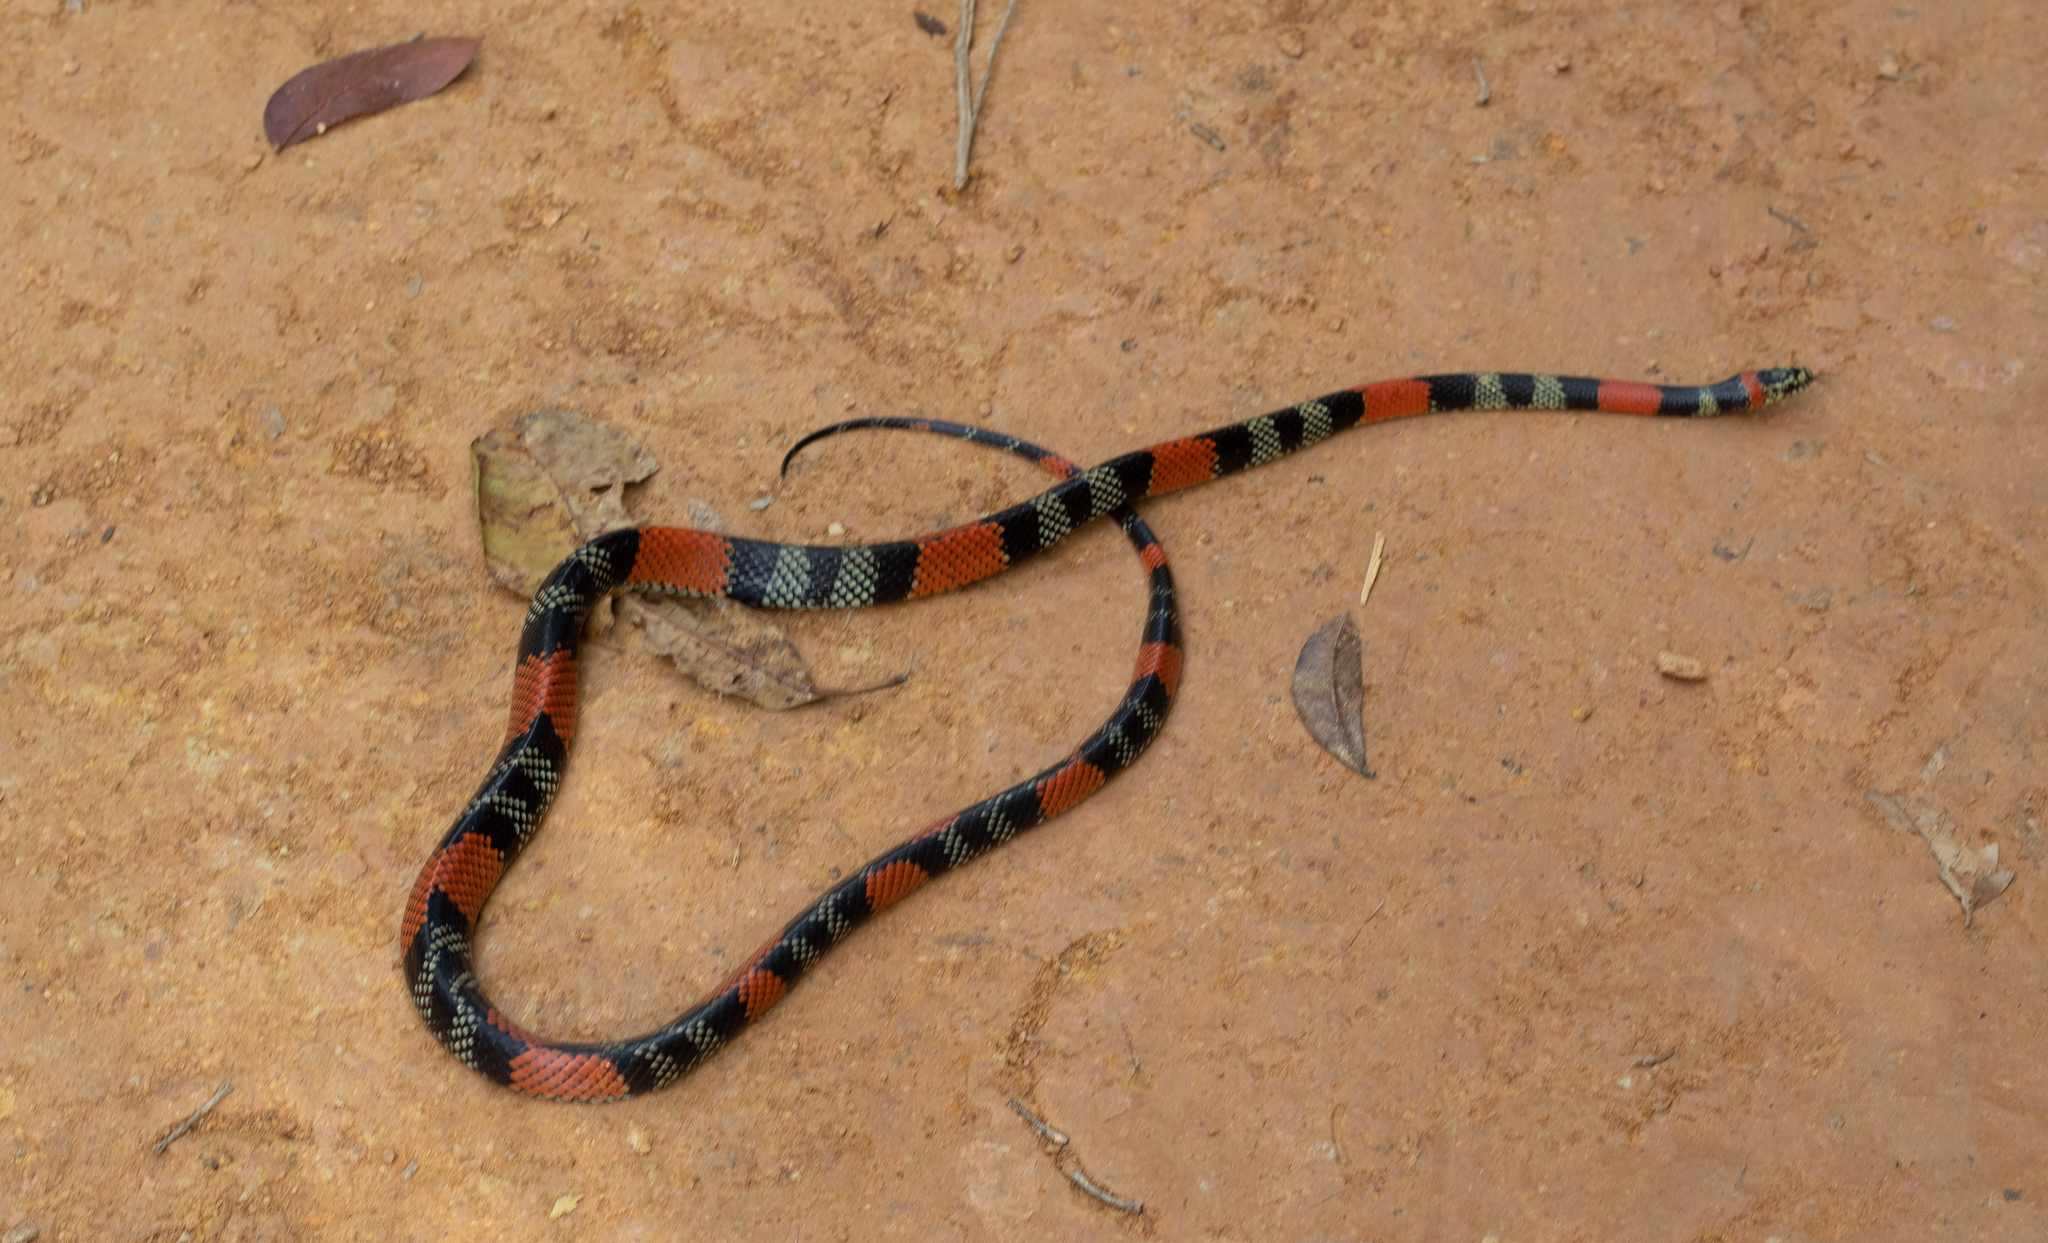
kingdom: Animalia
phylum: Chordata
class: Squamata
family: Colubridae
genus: Oxyrhopus
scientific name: Oxyrhopus trigeminus
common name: Brazilian false coral snake
